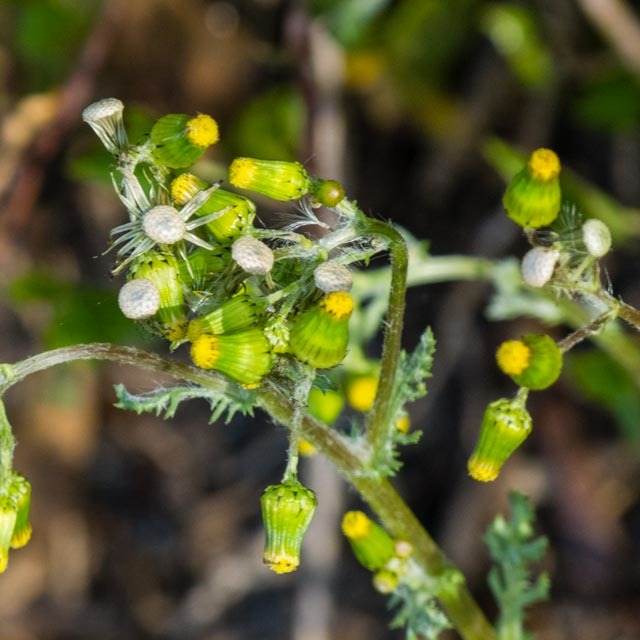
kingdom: Plantae
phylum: Tracheophyta
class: Magnoliopsida
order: Asterales
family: Asteraceae
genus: Senecio
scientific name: Senecio vulgaris
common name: Old-man-in-the-spring
